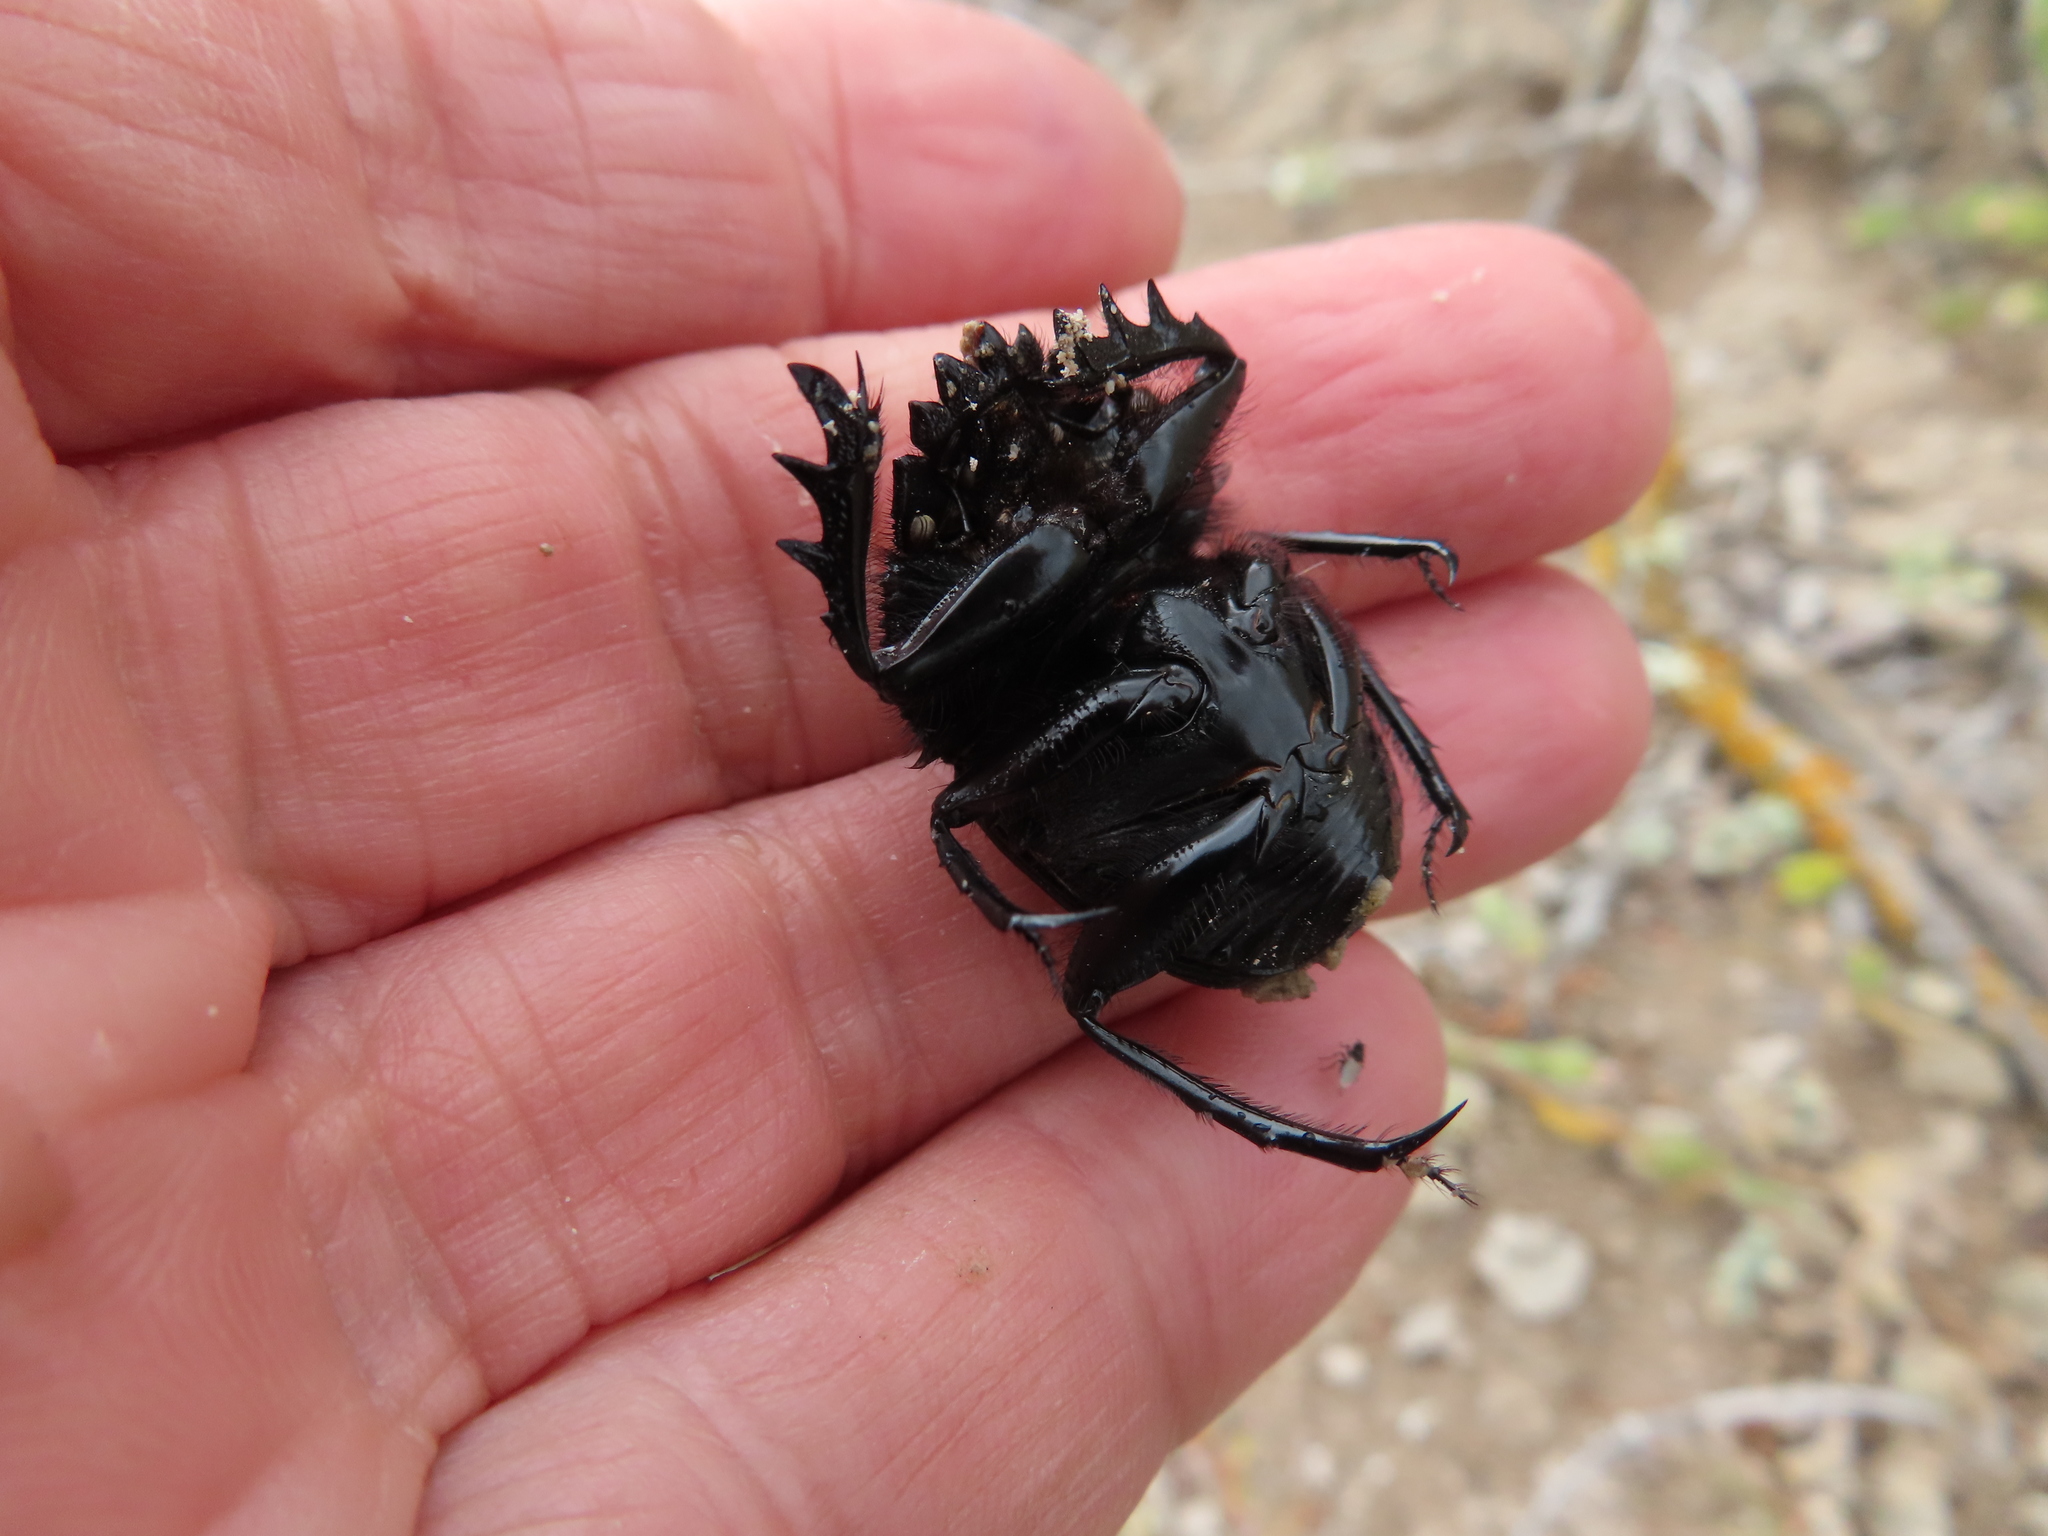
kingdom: Animalia
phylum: Arthropoda
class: Insecta
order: Coleoptera
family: Scarabaeidae
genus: Kheper
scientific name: Kheper bonellii
